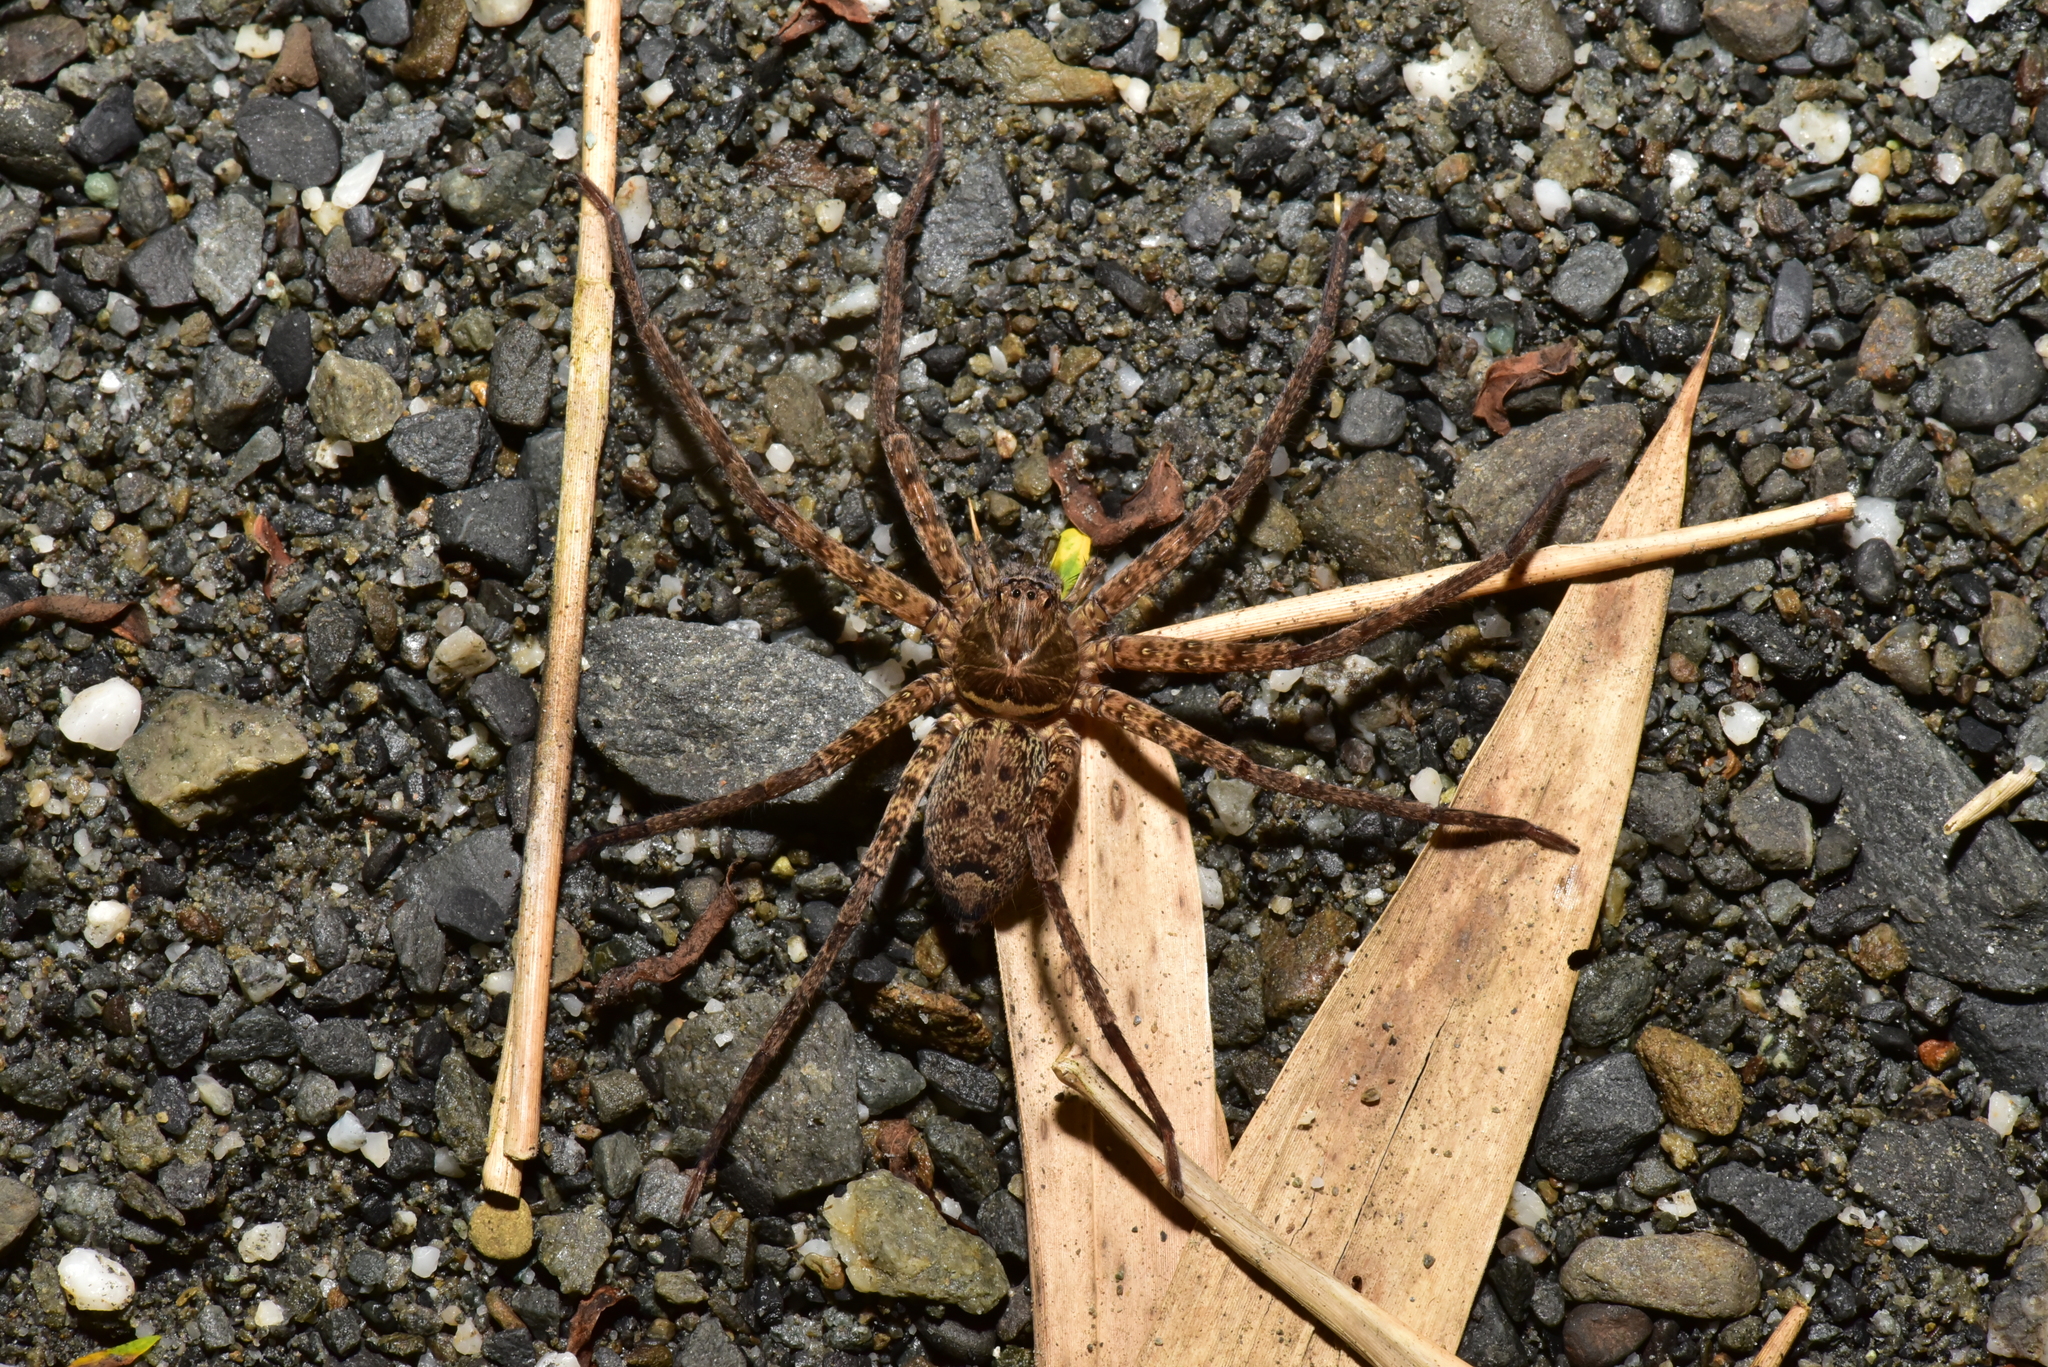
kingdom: Animalia
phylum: Arthropoda
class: Arachnida
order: Araneae
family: Sparassidae
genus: Heteropoda
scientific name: Heteropoda venatoria
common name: Huntsman spider
